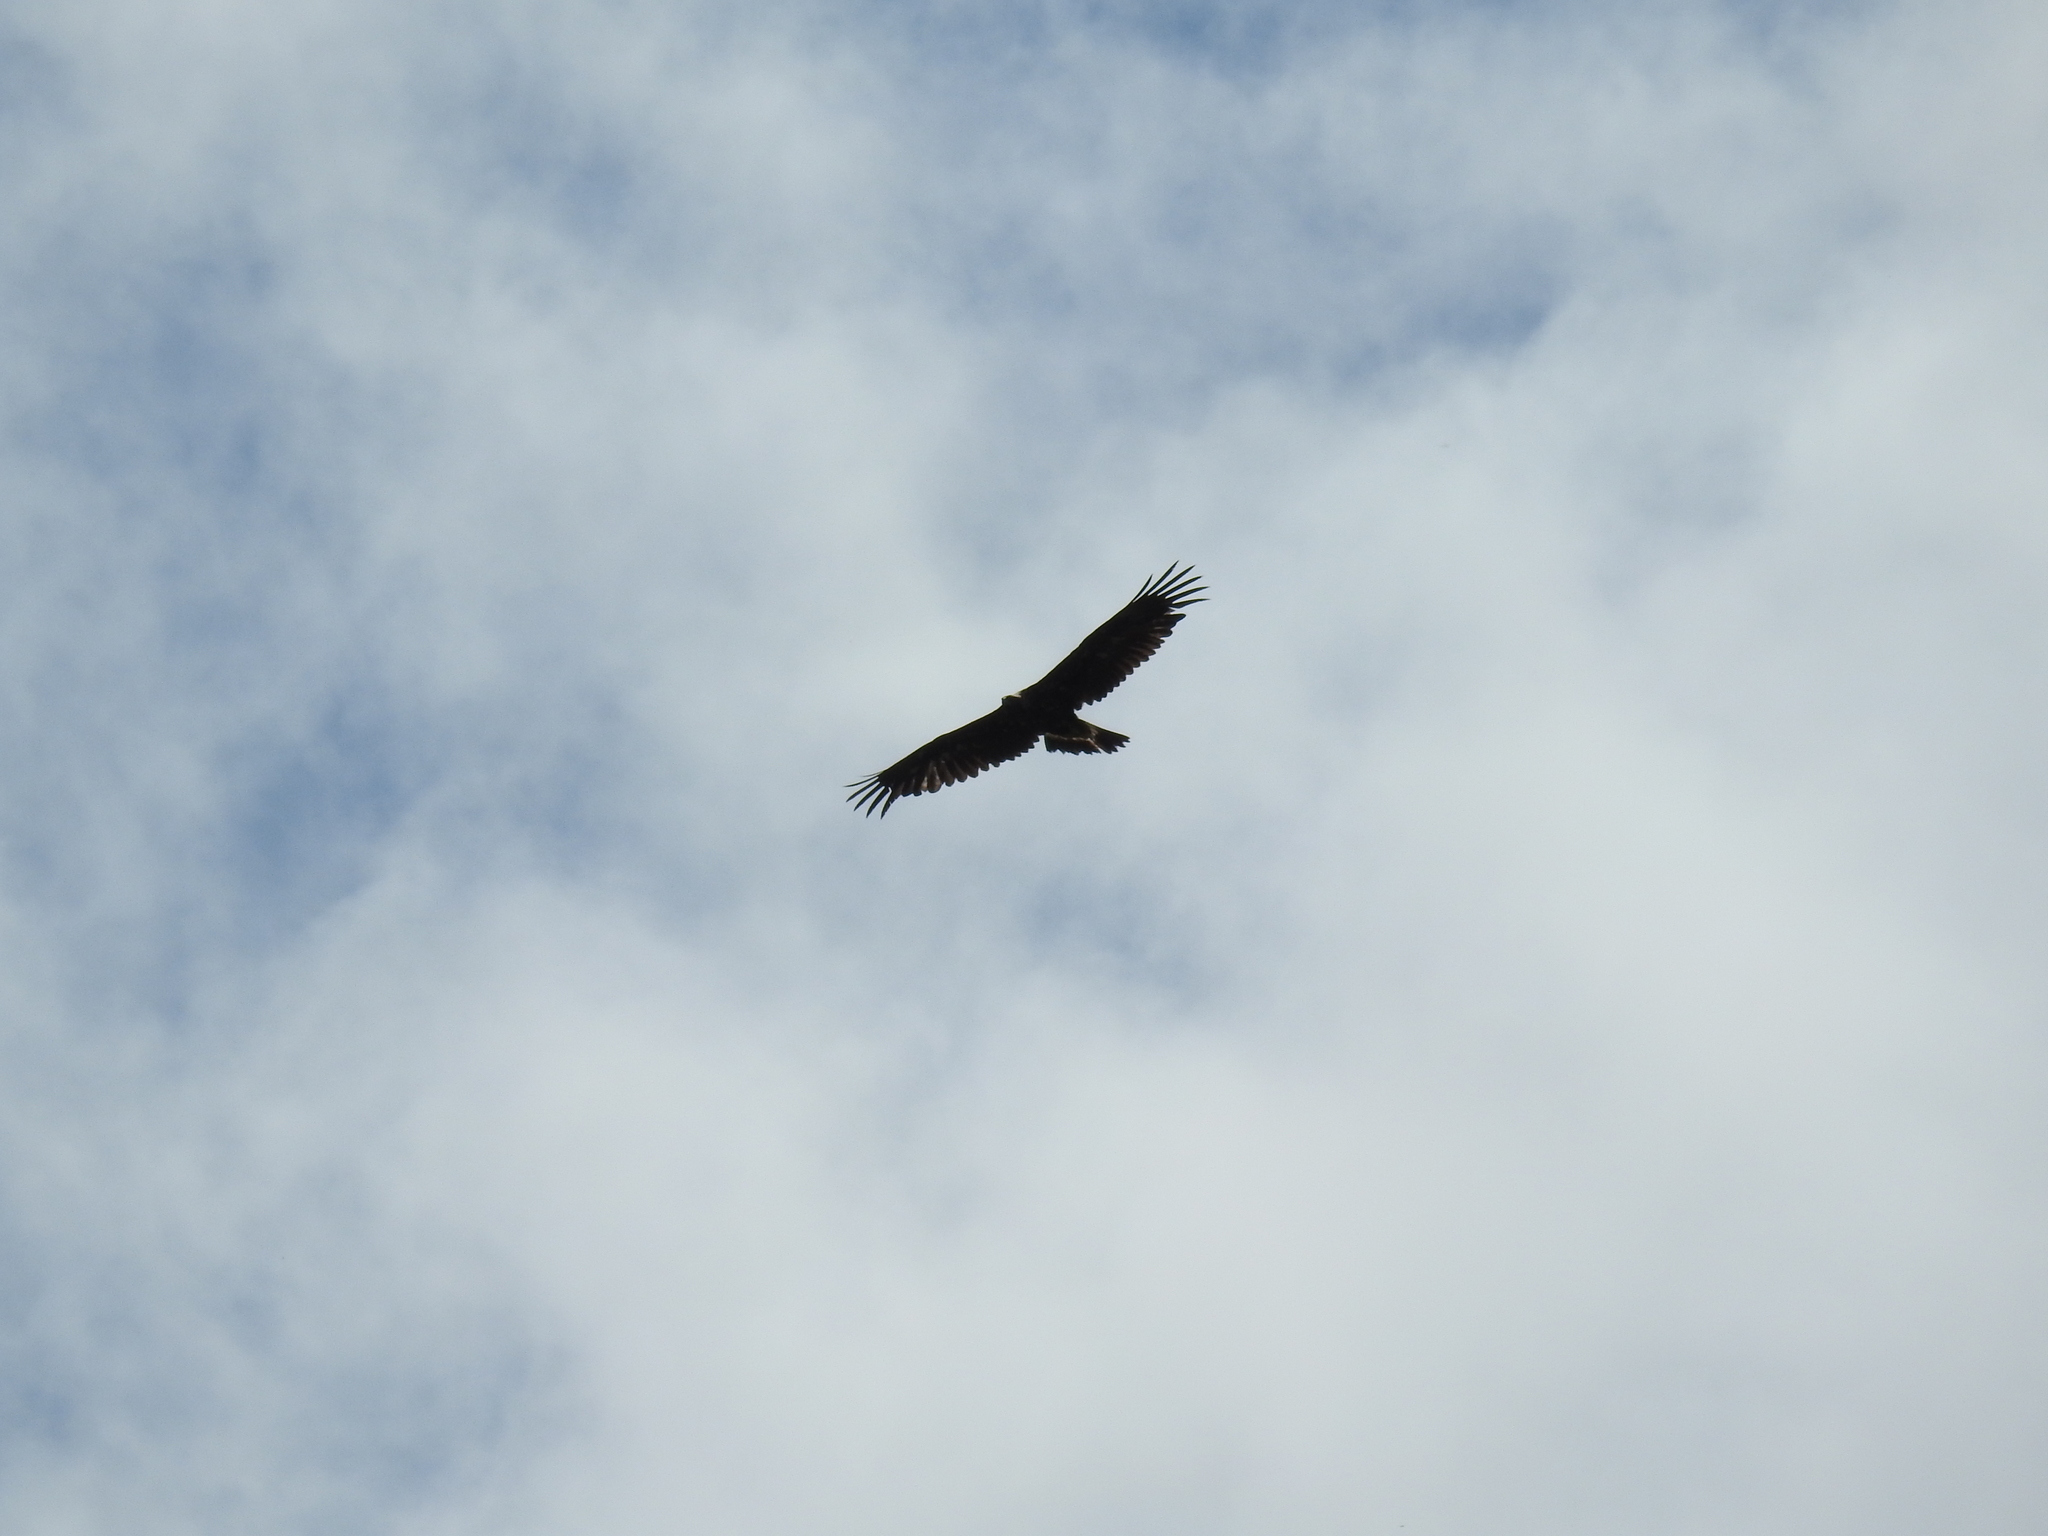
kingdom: Animalia
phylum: Chordata
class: Aves
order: Accipitriformes
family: Accipitridae
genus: Aquila
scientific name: Aquila chrysaetos
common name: Golden eagle
